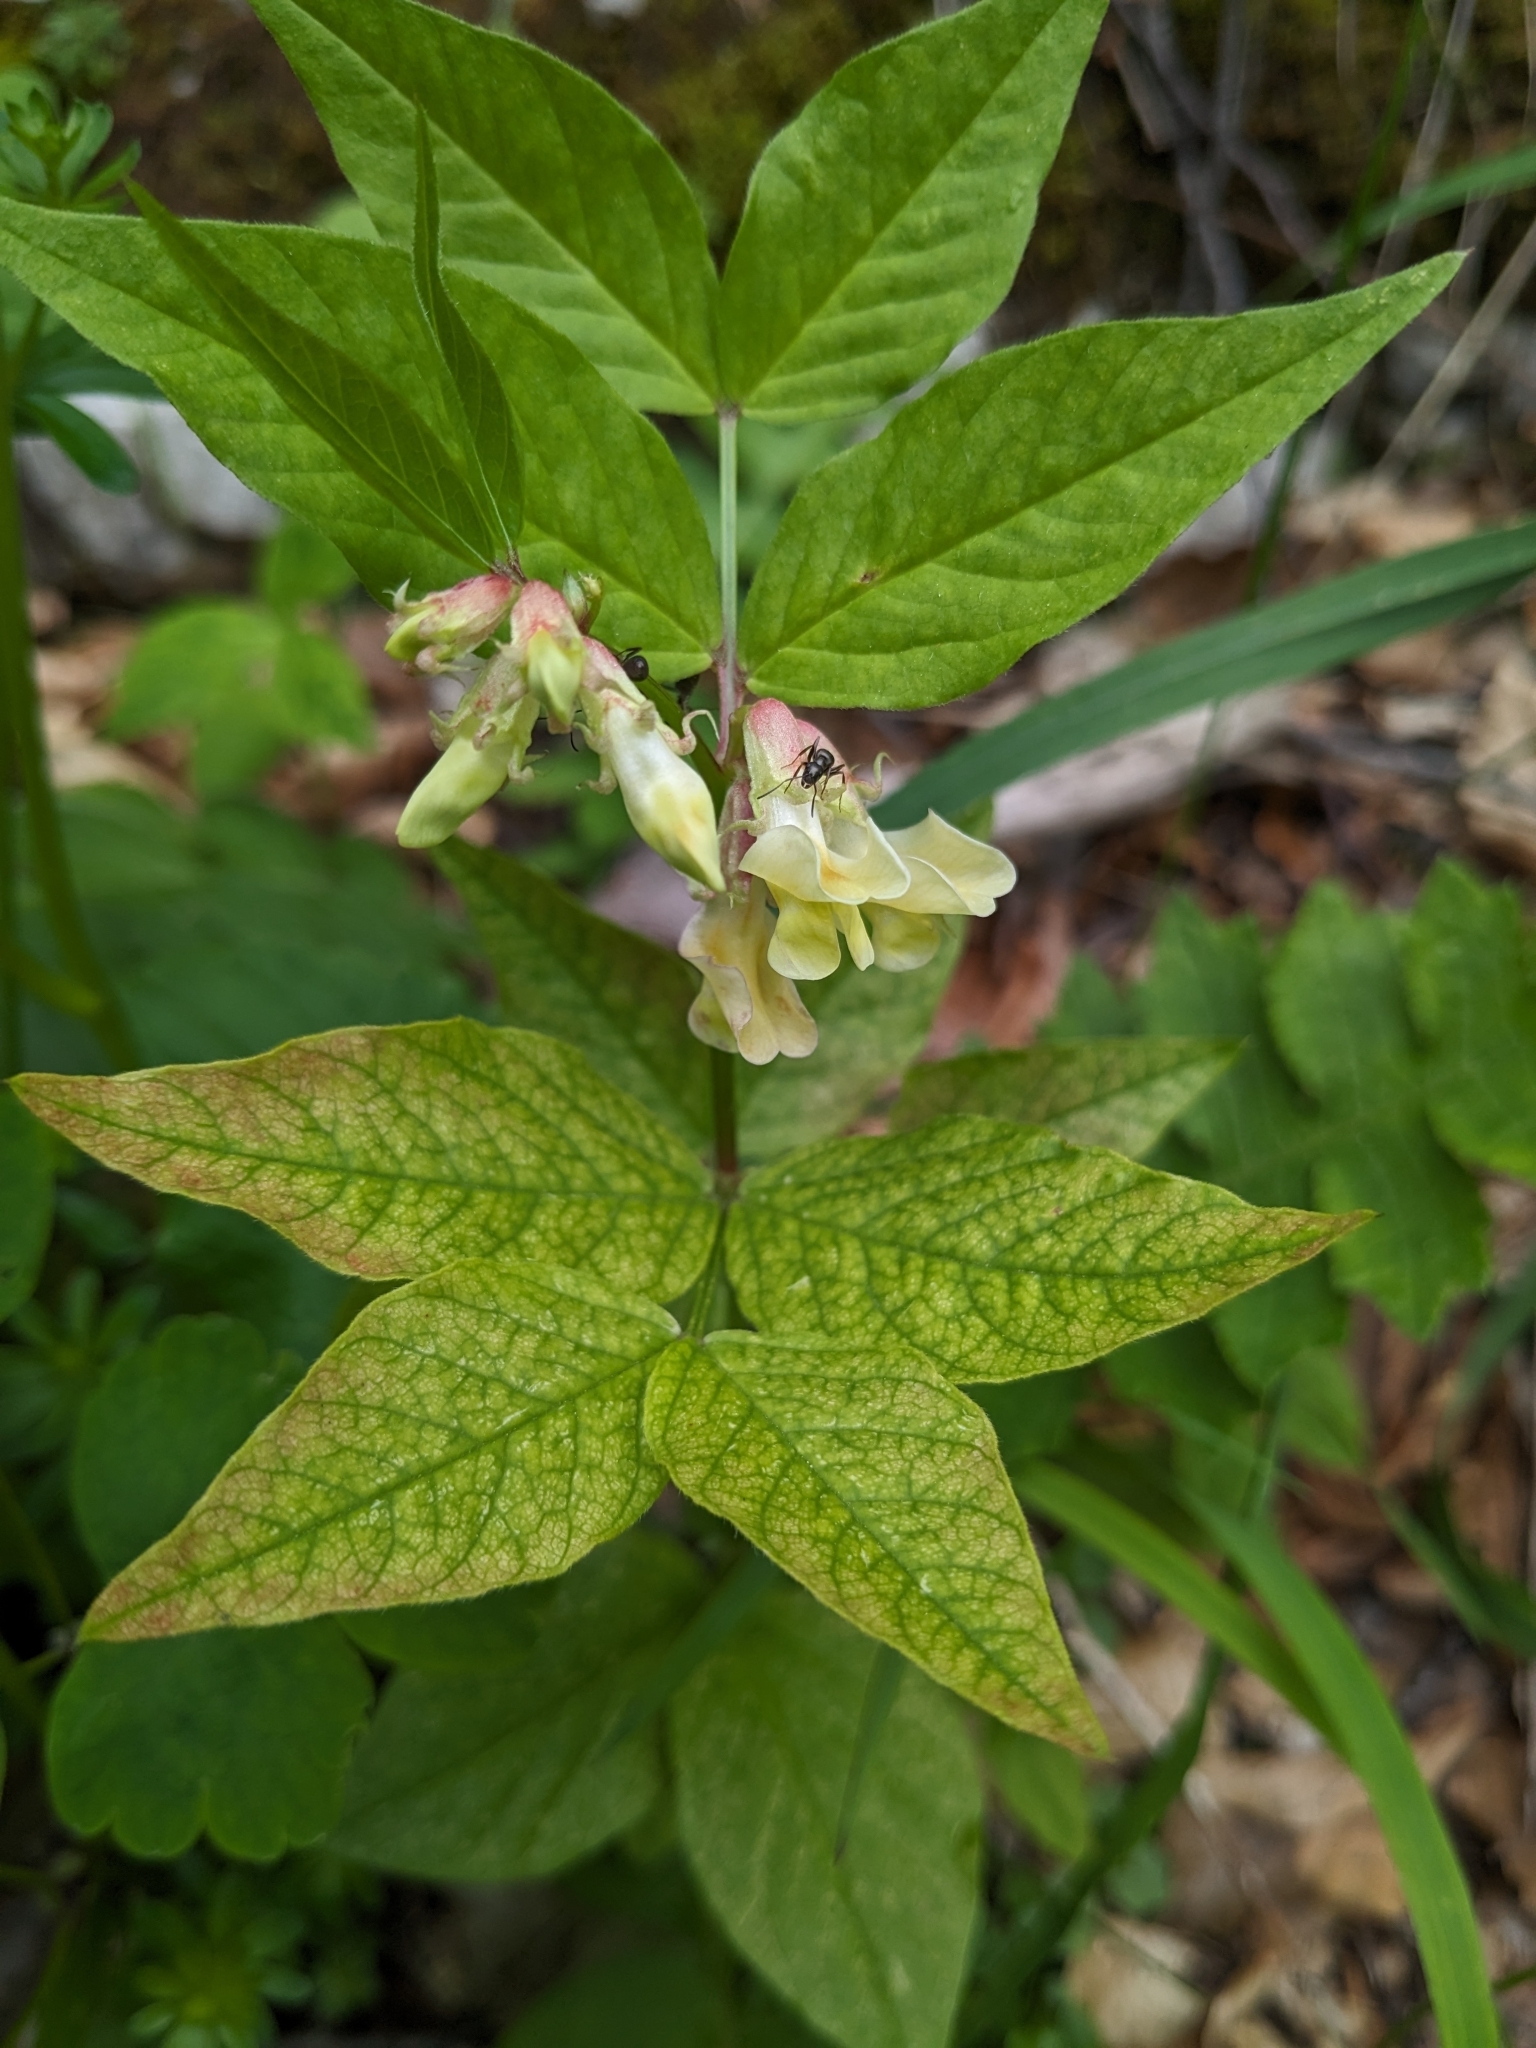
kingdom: Plantae
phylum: Tracheophyta
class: Magnoliopsida
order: Fabales
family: Fabaceae
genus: Vicia
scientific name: Vicia oroboides
